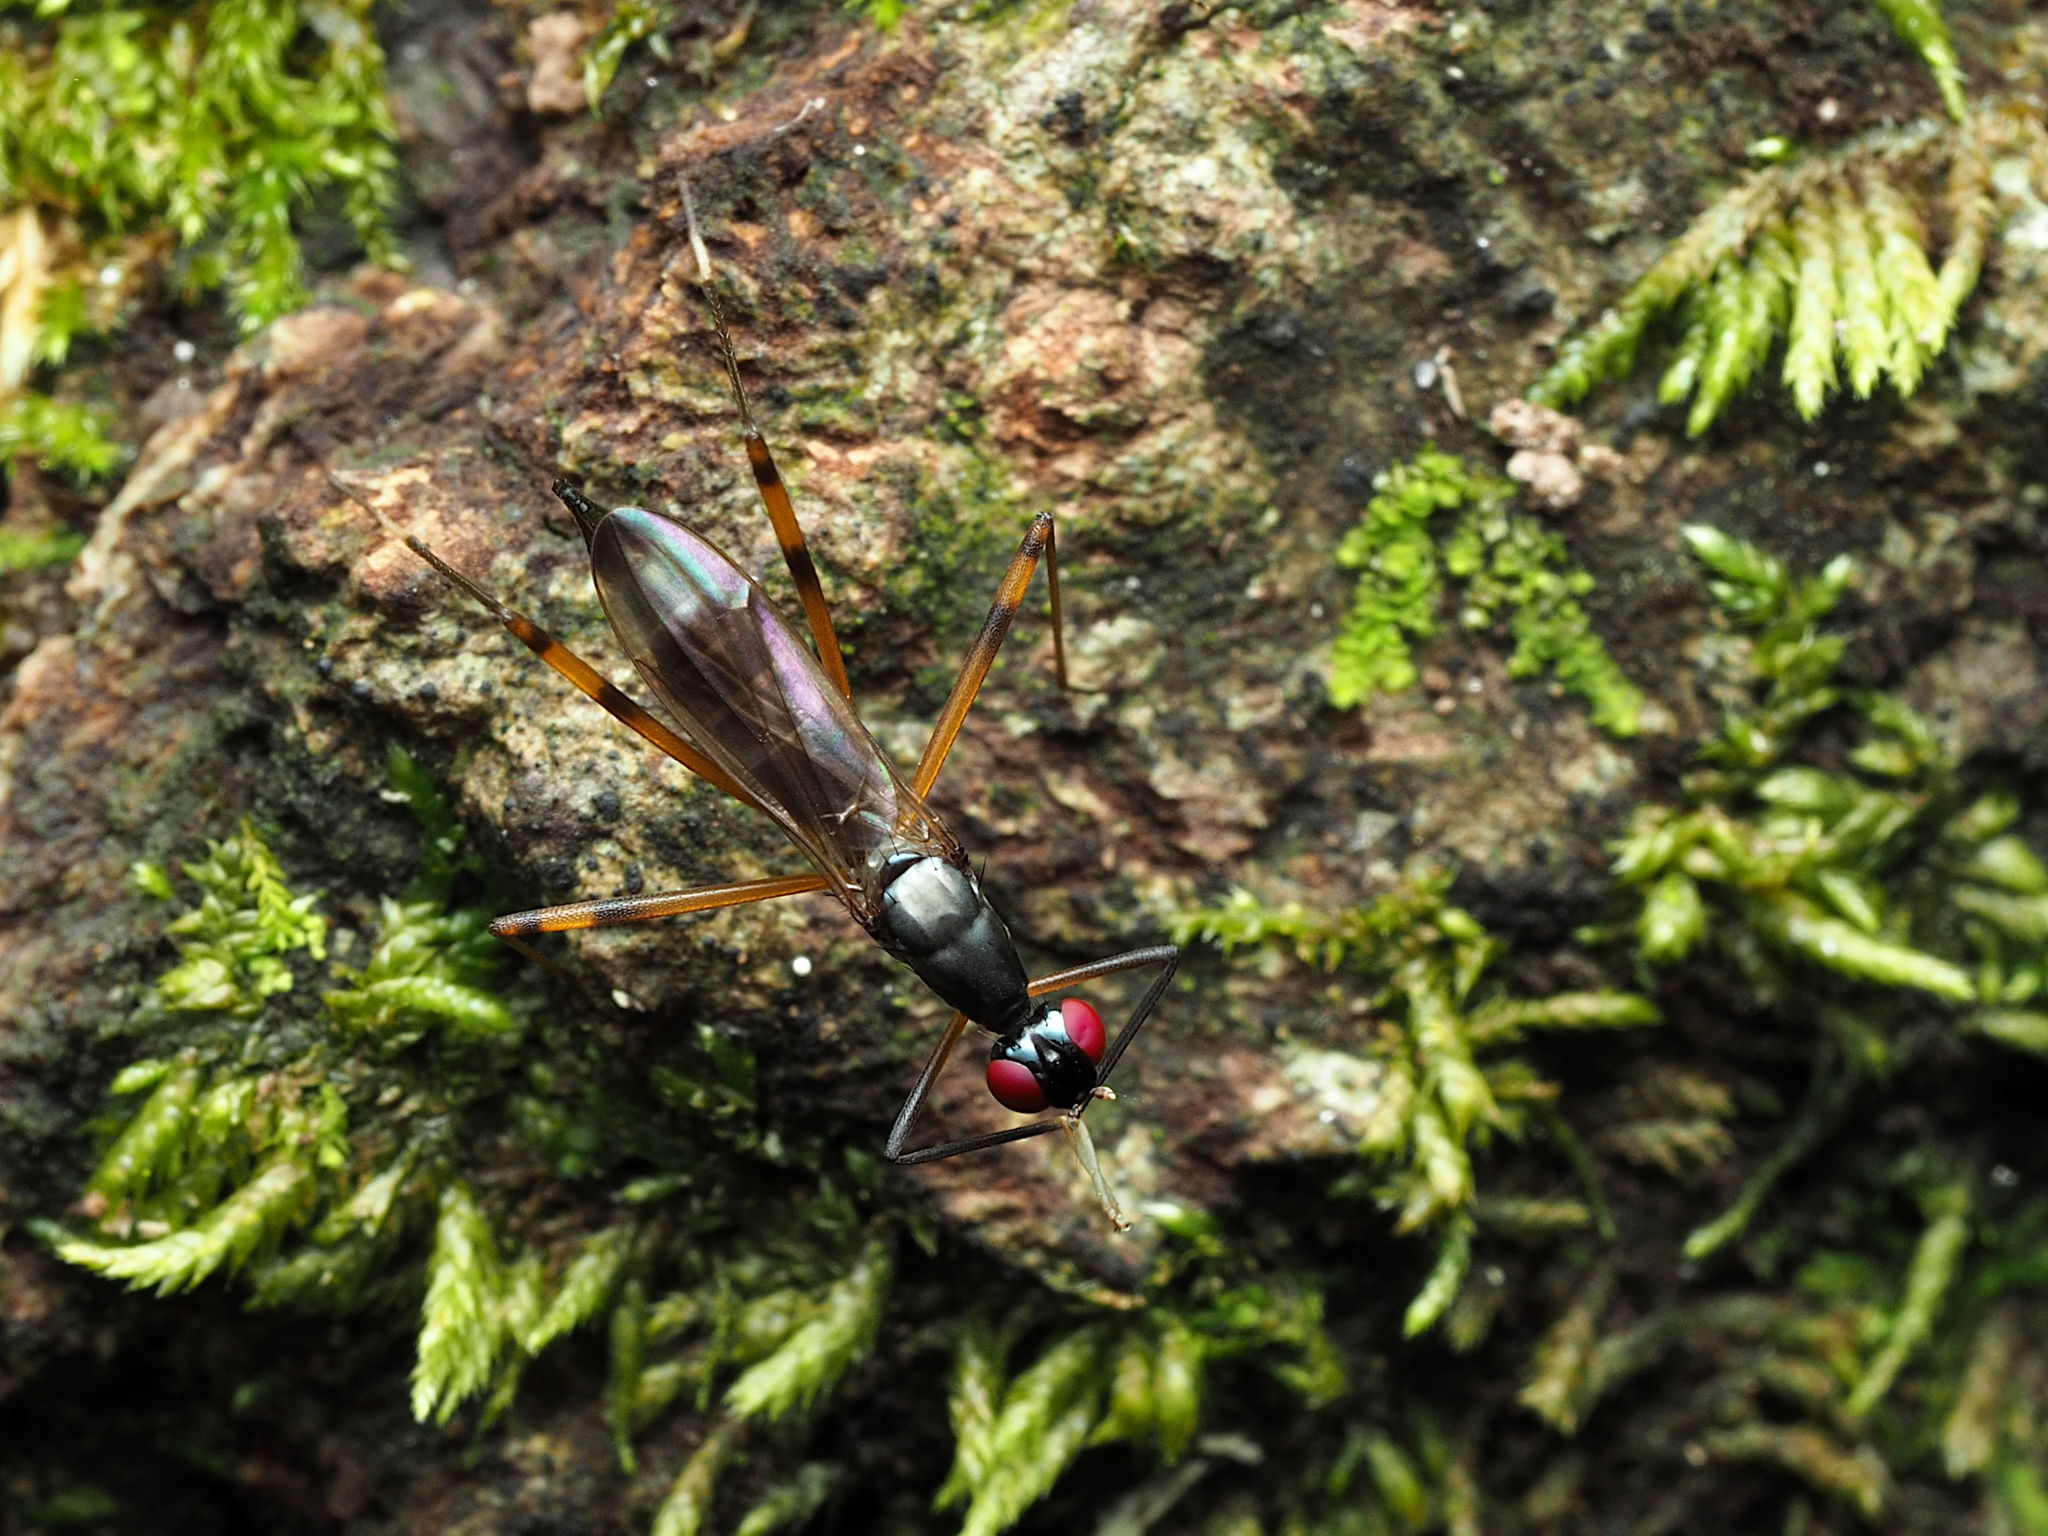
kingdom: Animalia
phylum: Arthropoda
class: Insecta
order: Diptera
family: Micropezidae
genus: Rainieria
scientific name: Rainieria antennaepes
